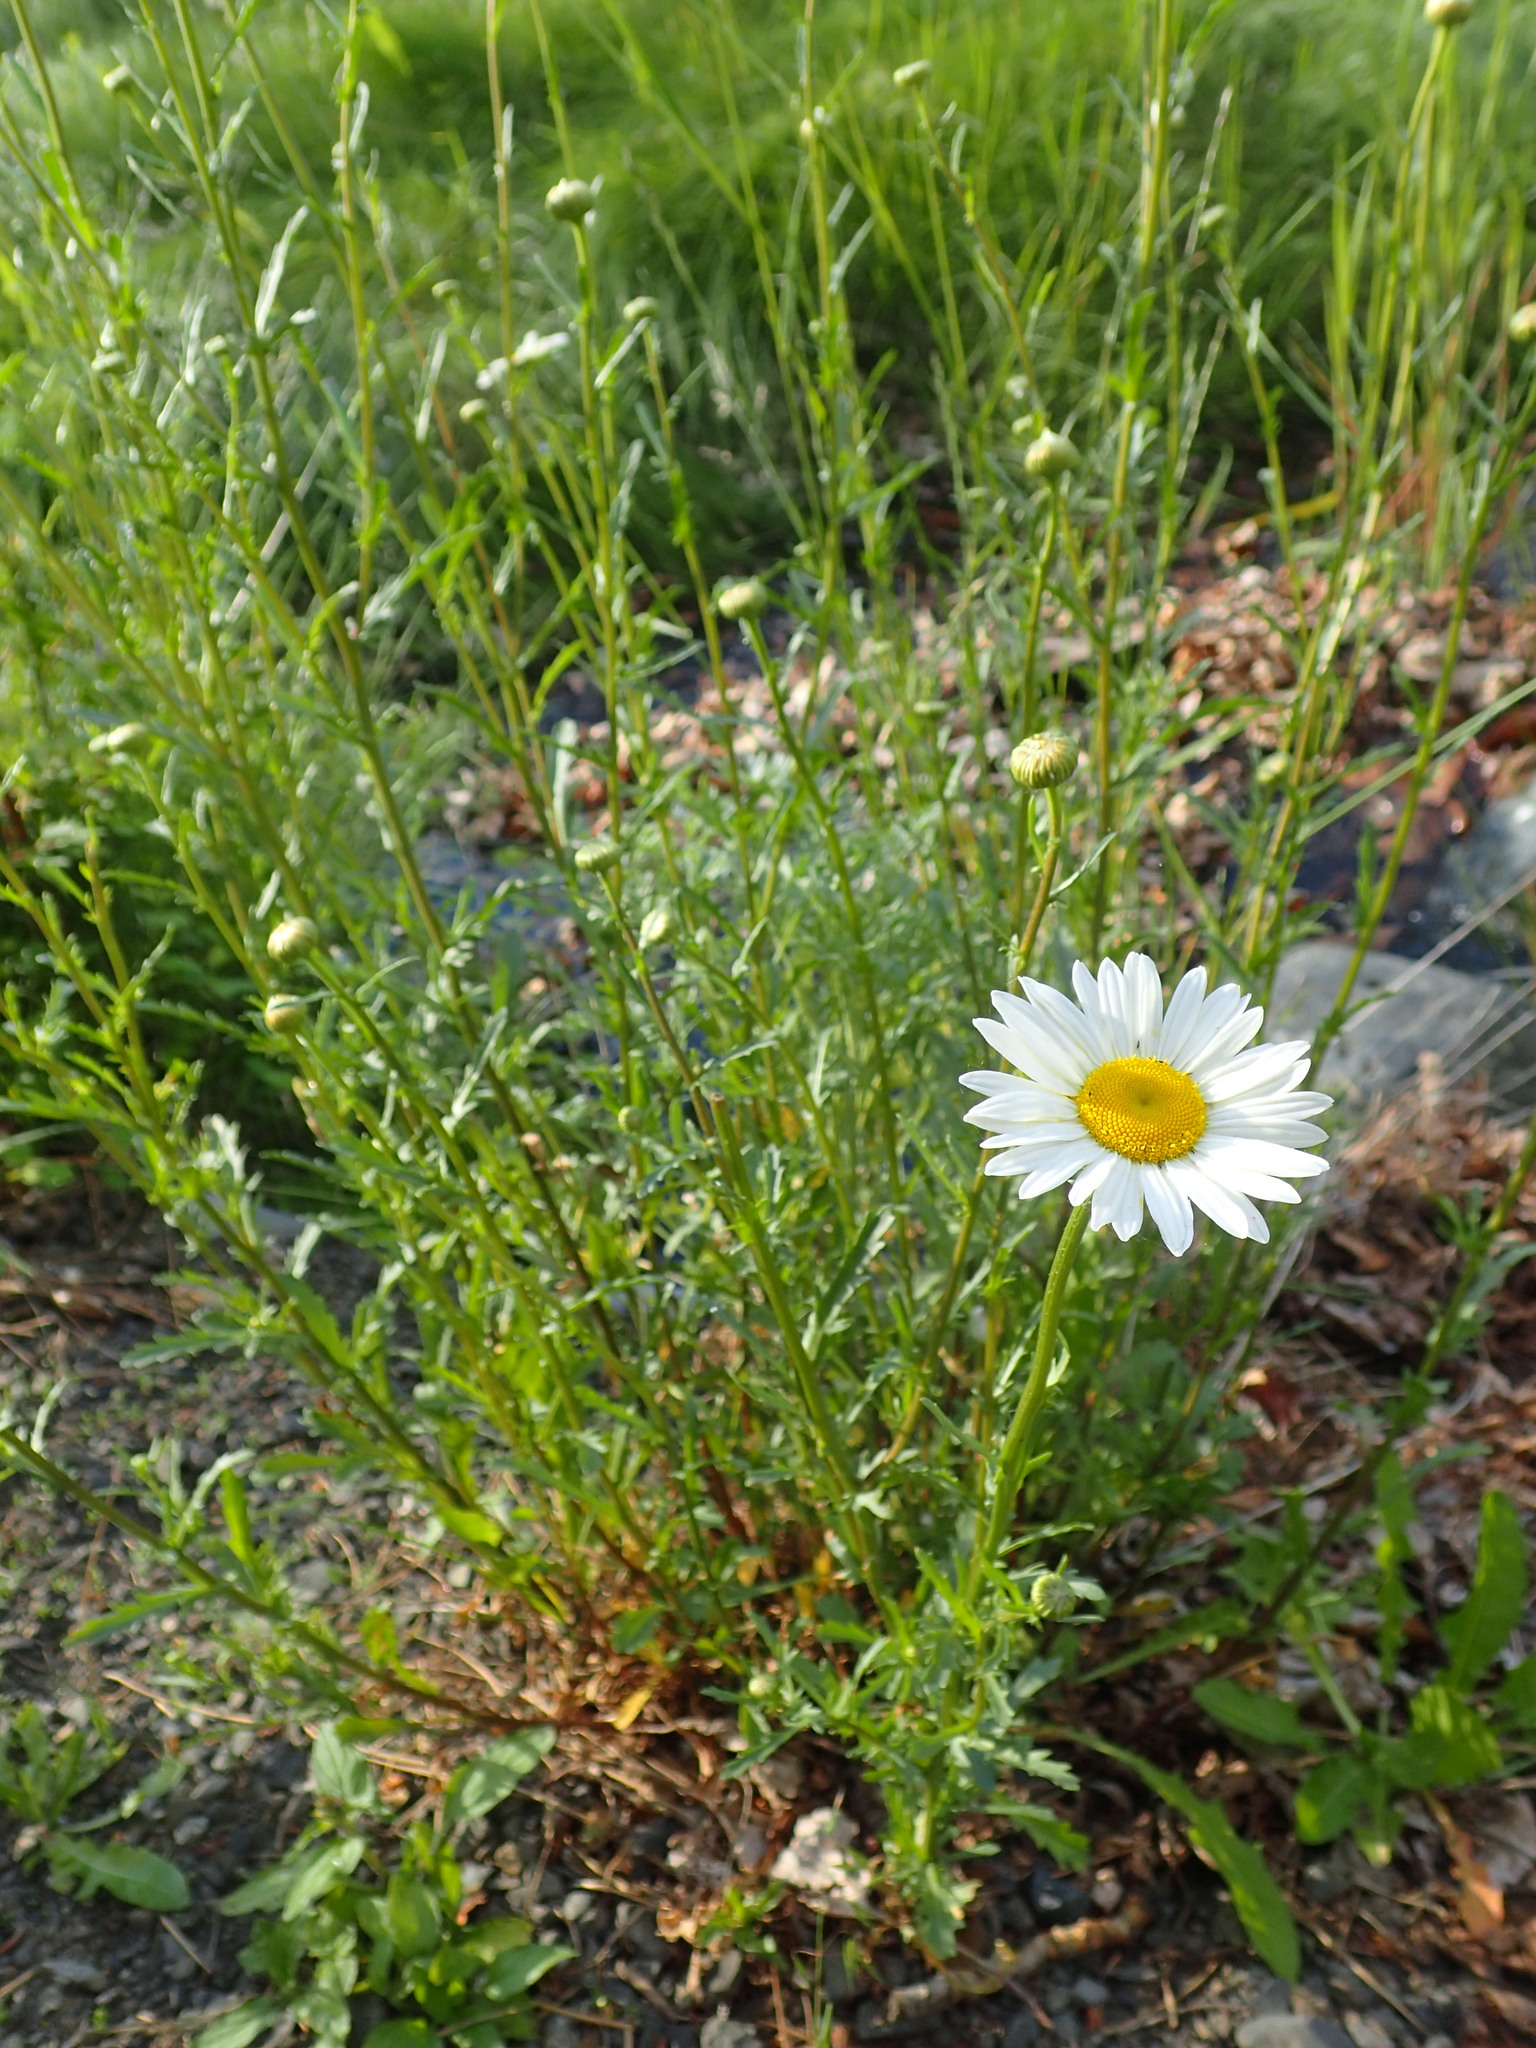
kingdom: Plantae
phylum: Tracheophyta
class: Magnoliopsida
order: Asterales
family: Asteraceae
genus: Leucanthemum
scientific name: Leucanthemum vulgare
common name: Oxeye daisy
